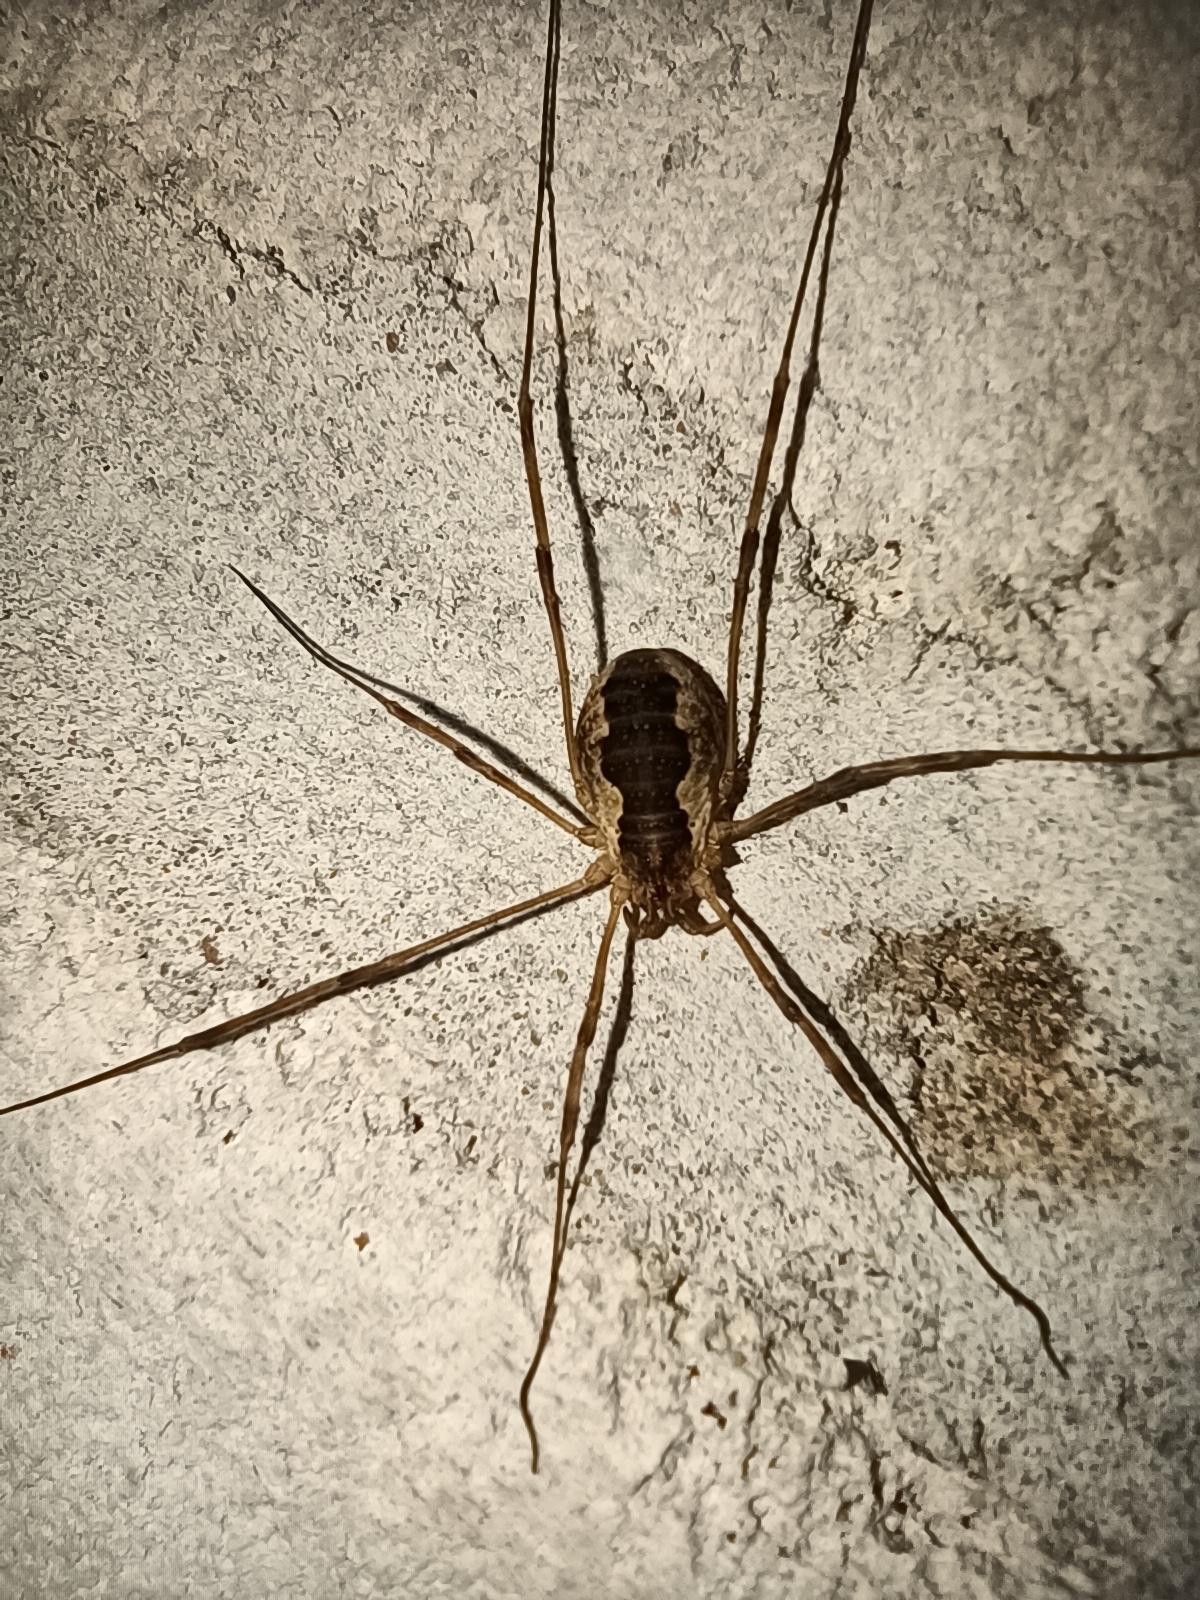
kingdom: Animalia
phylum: Arthropoda
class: Arachnida
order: Opiliones
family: Phalangiidae
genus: Mitopus
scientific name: Mitopus morio
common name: Saddleback harvestman
